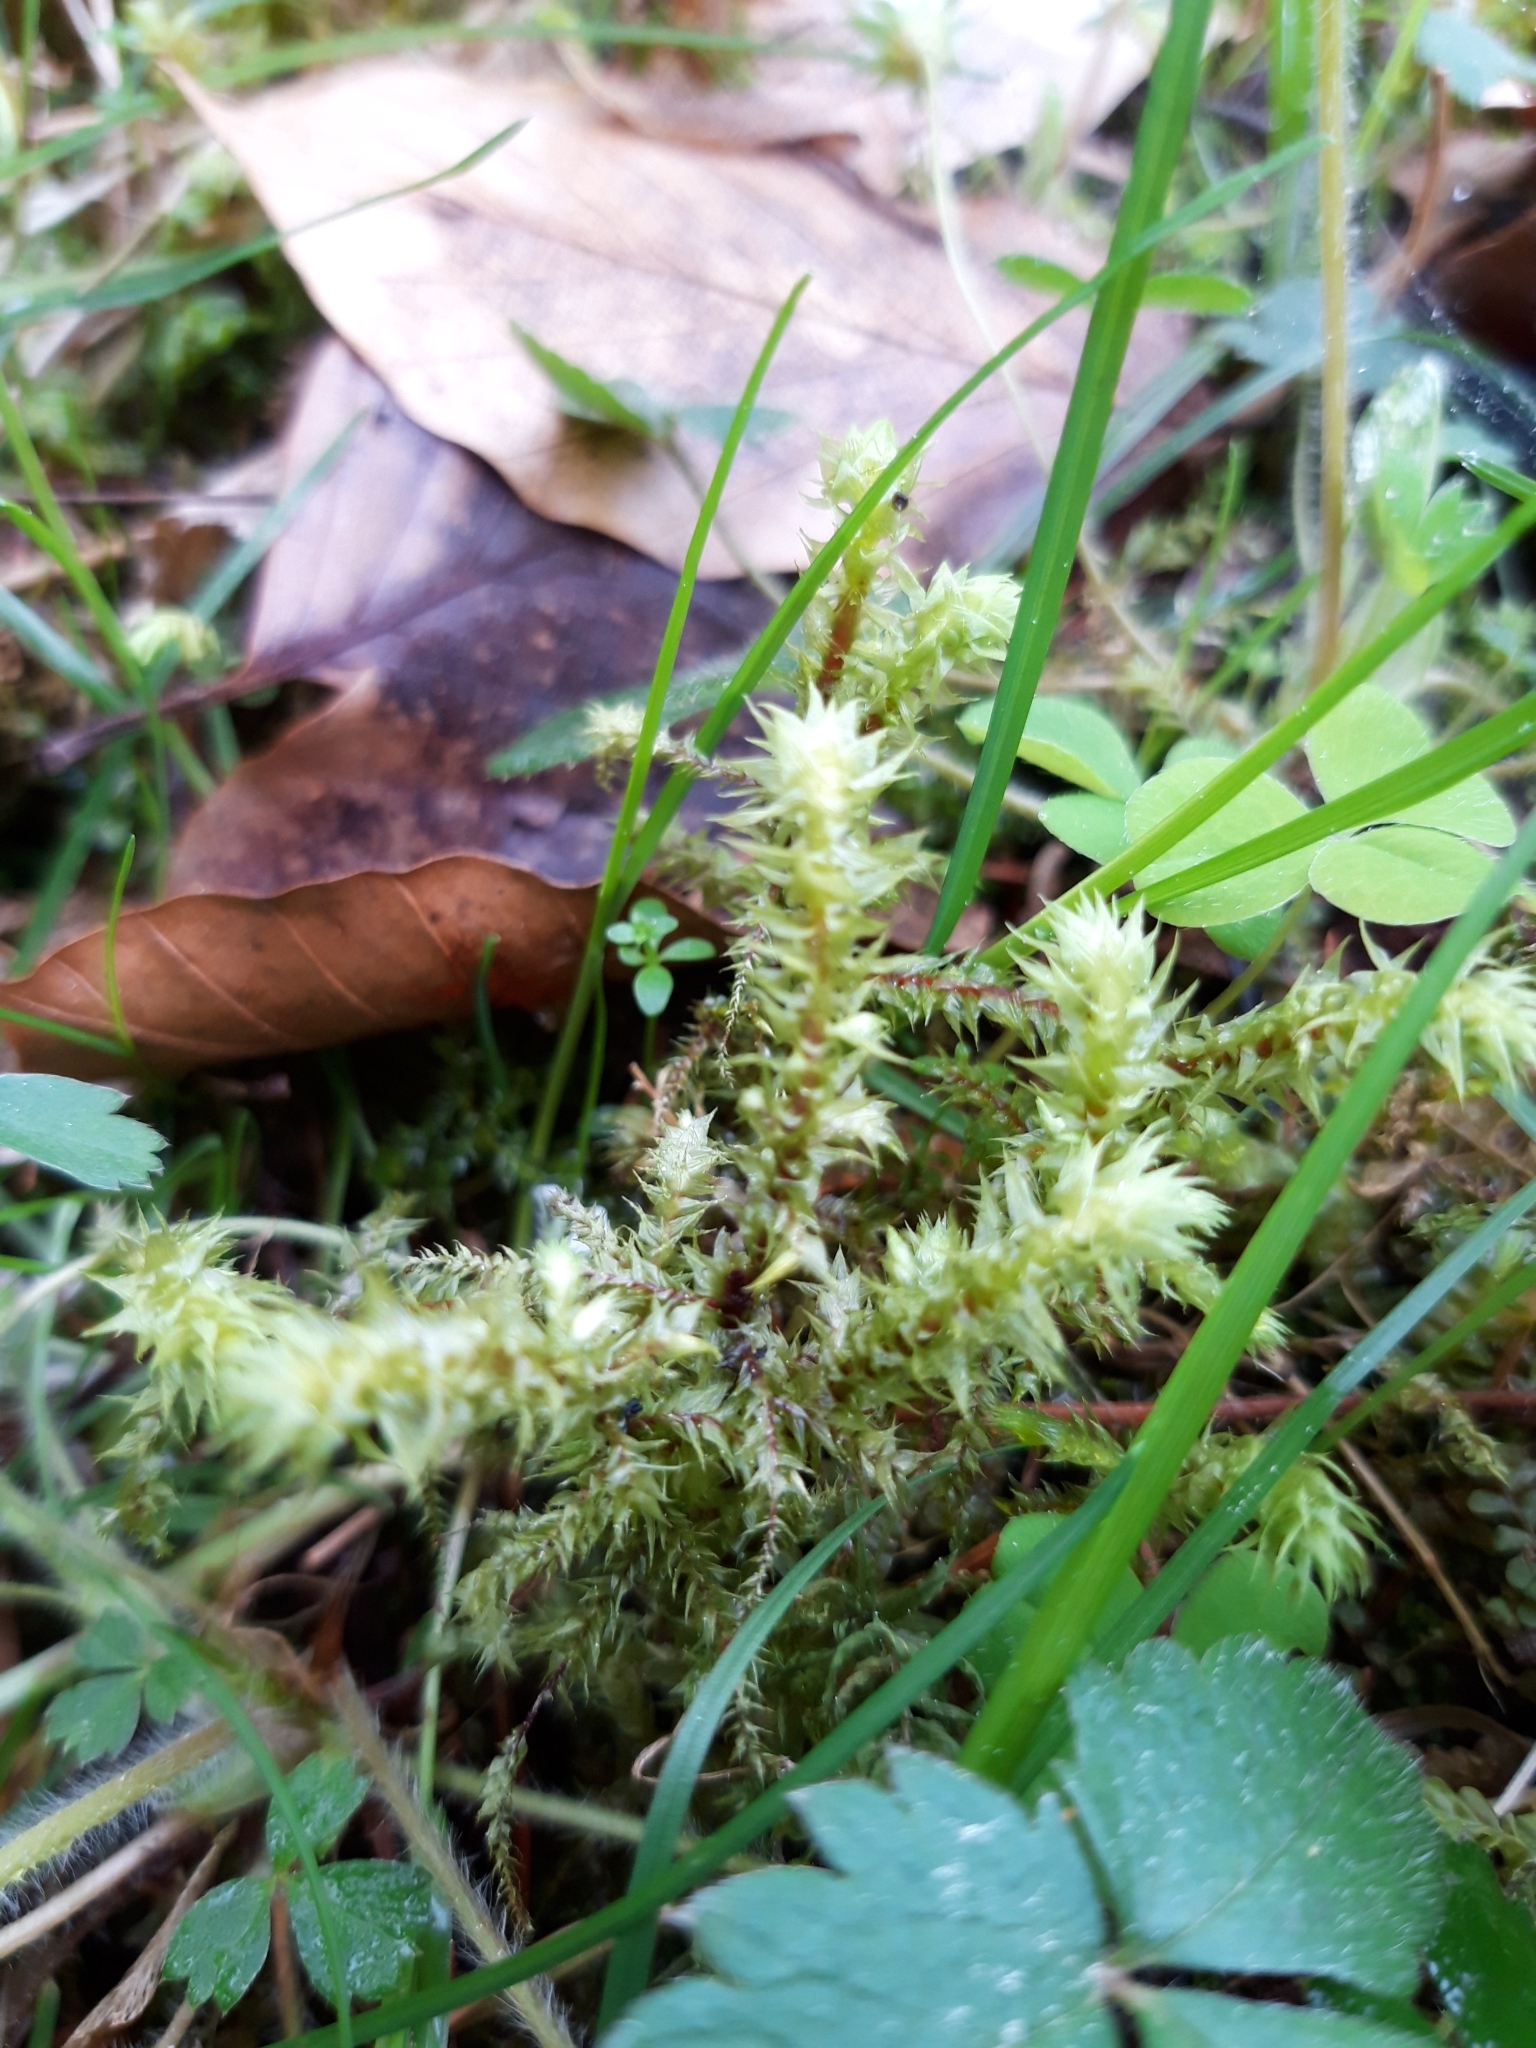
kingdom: Plantae
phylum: Bryophyta
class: Bryopsida
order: Hypnales
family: Hylocomiaceae
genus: Hylocomiadelphus
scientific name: Hylocomiadelphus triquetrus
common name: Rough goose neck moss
